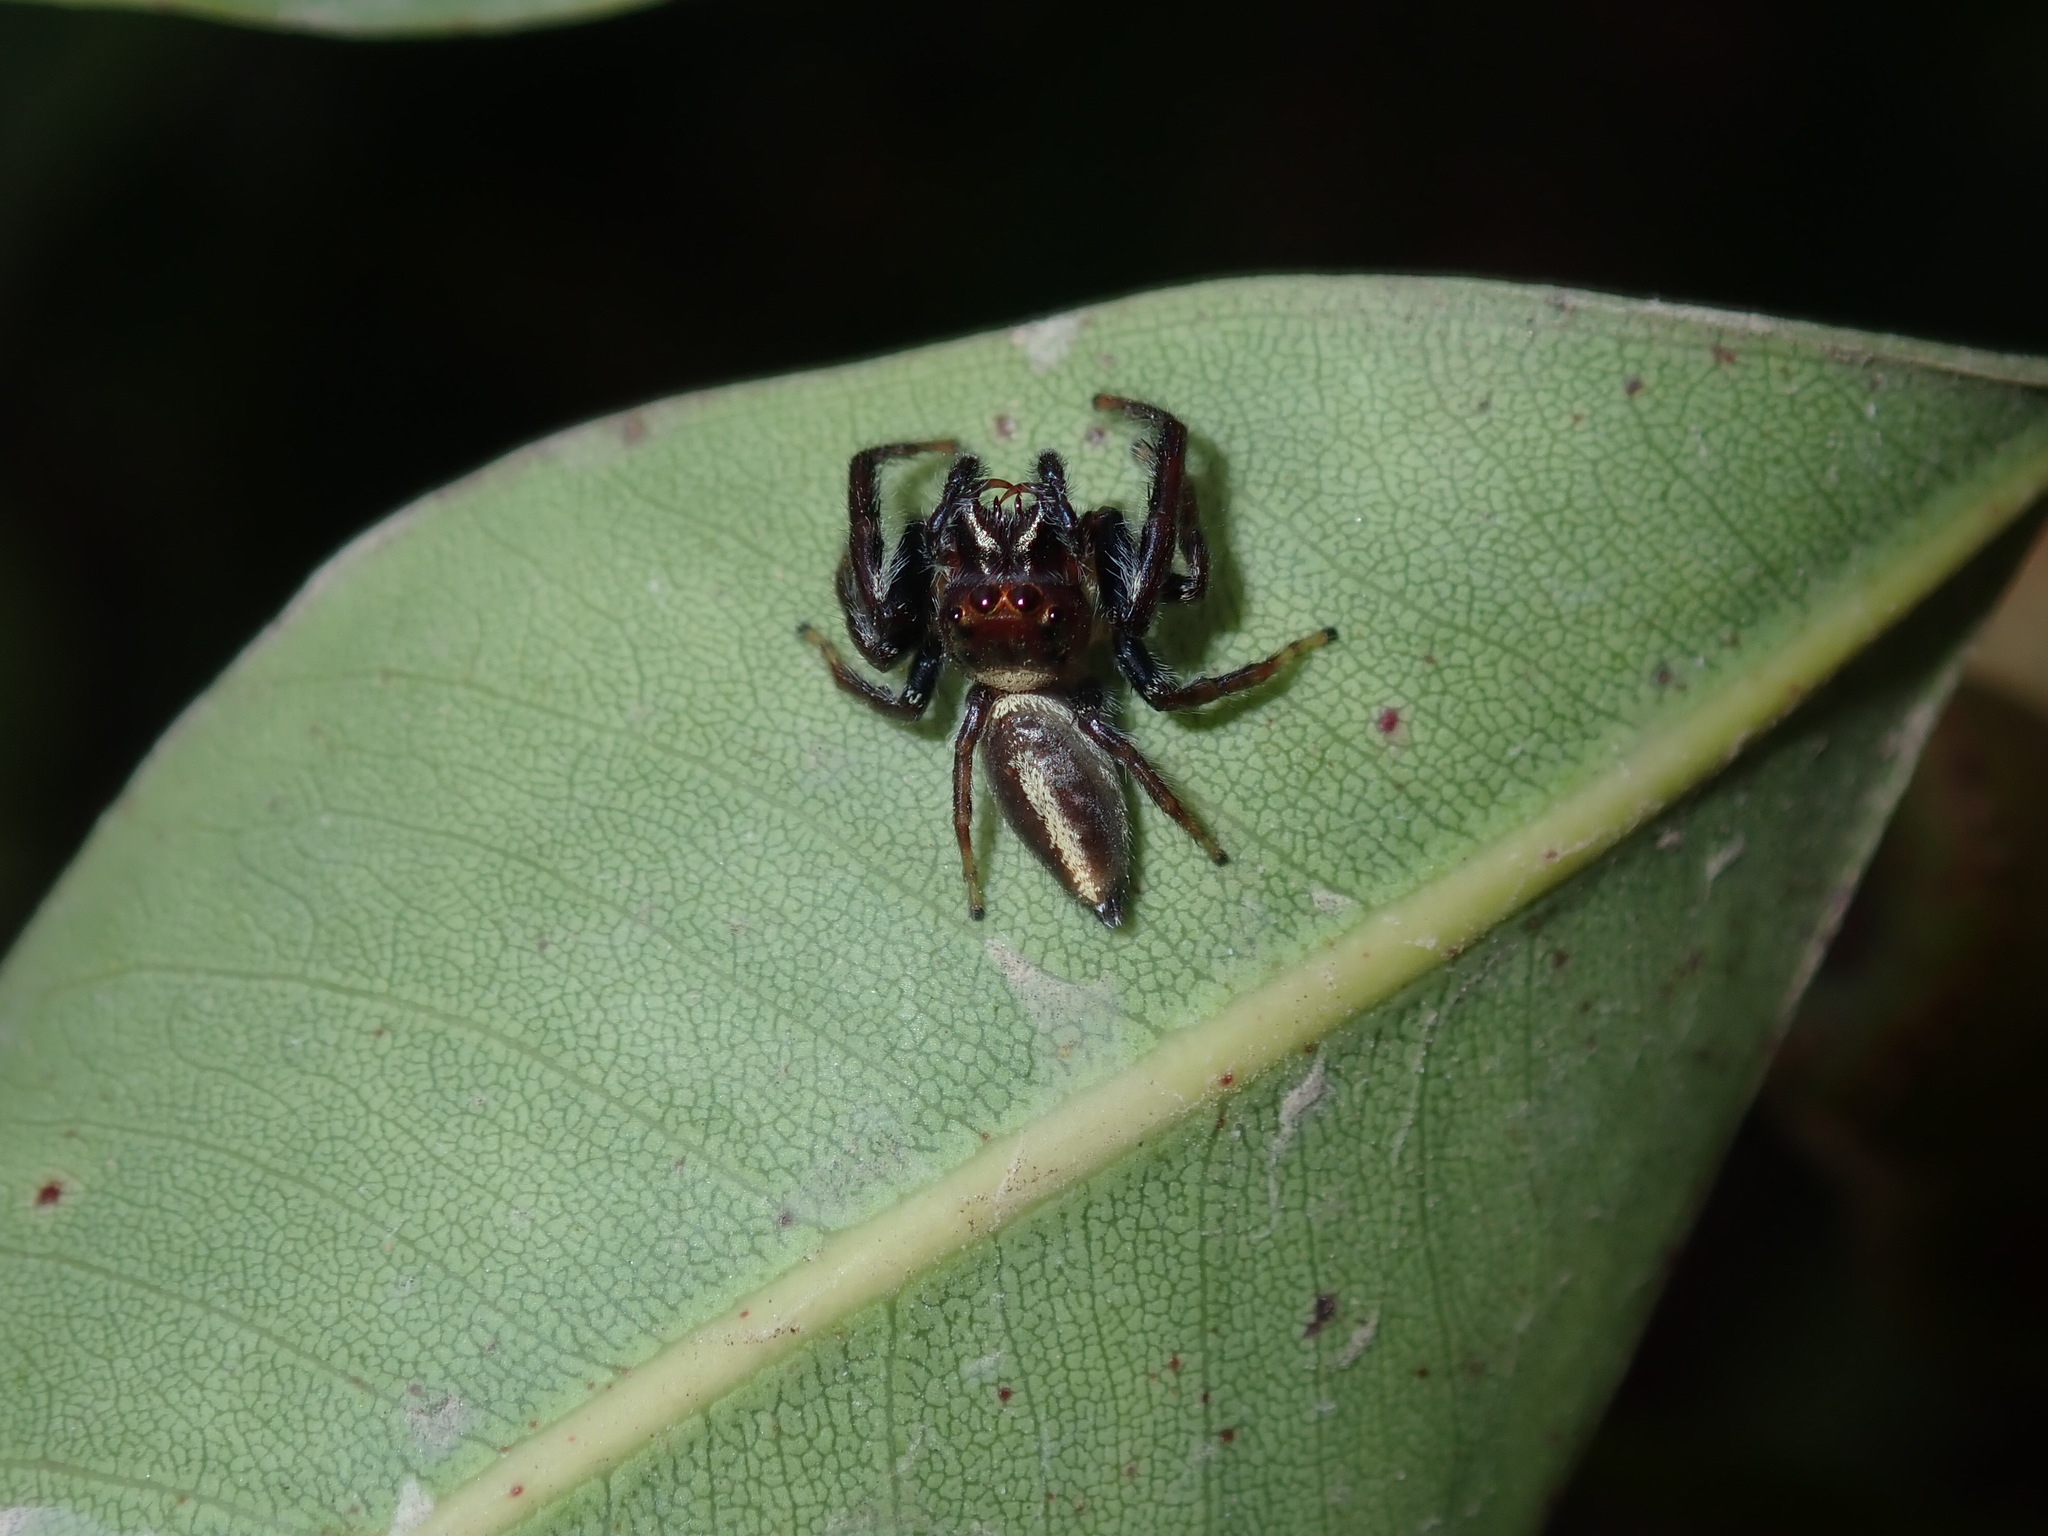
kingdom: Animalia
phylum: Arthropoda
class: Arachnida
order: Araneae
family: Salticidae
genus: Opisthoncus
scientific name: Opisthoncus quadratarius
